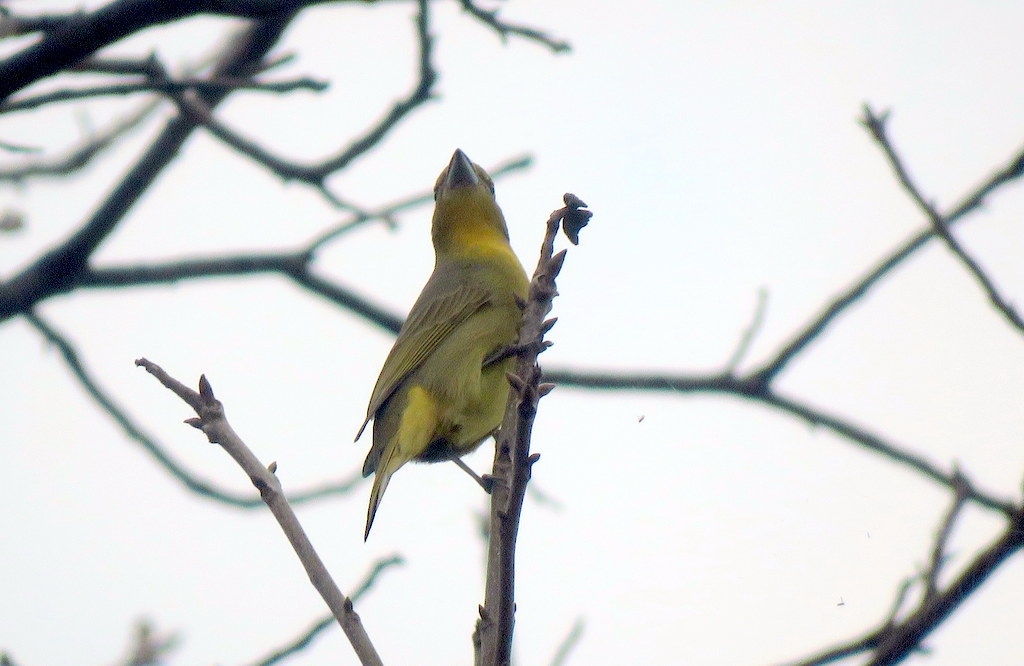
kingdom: Animalia
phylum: Chordata
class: Aves
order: Passeriformes
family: Cardinalidae
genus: Piranga
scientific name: Piranga flava
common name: Red tanager
